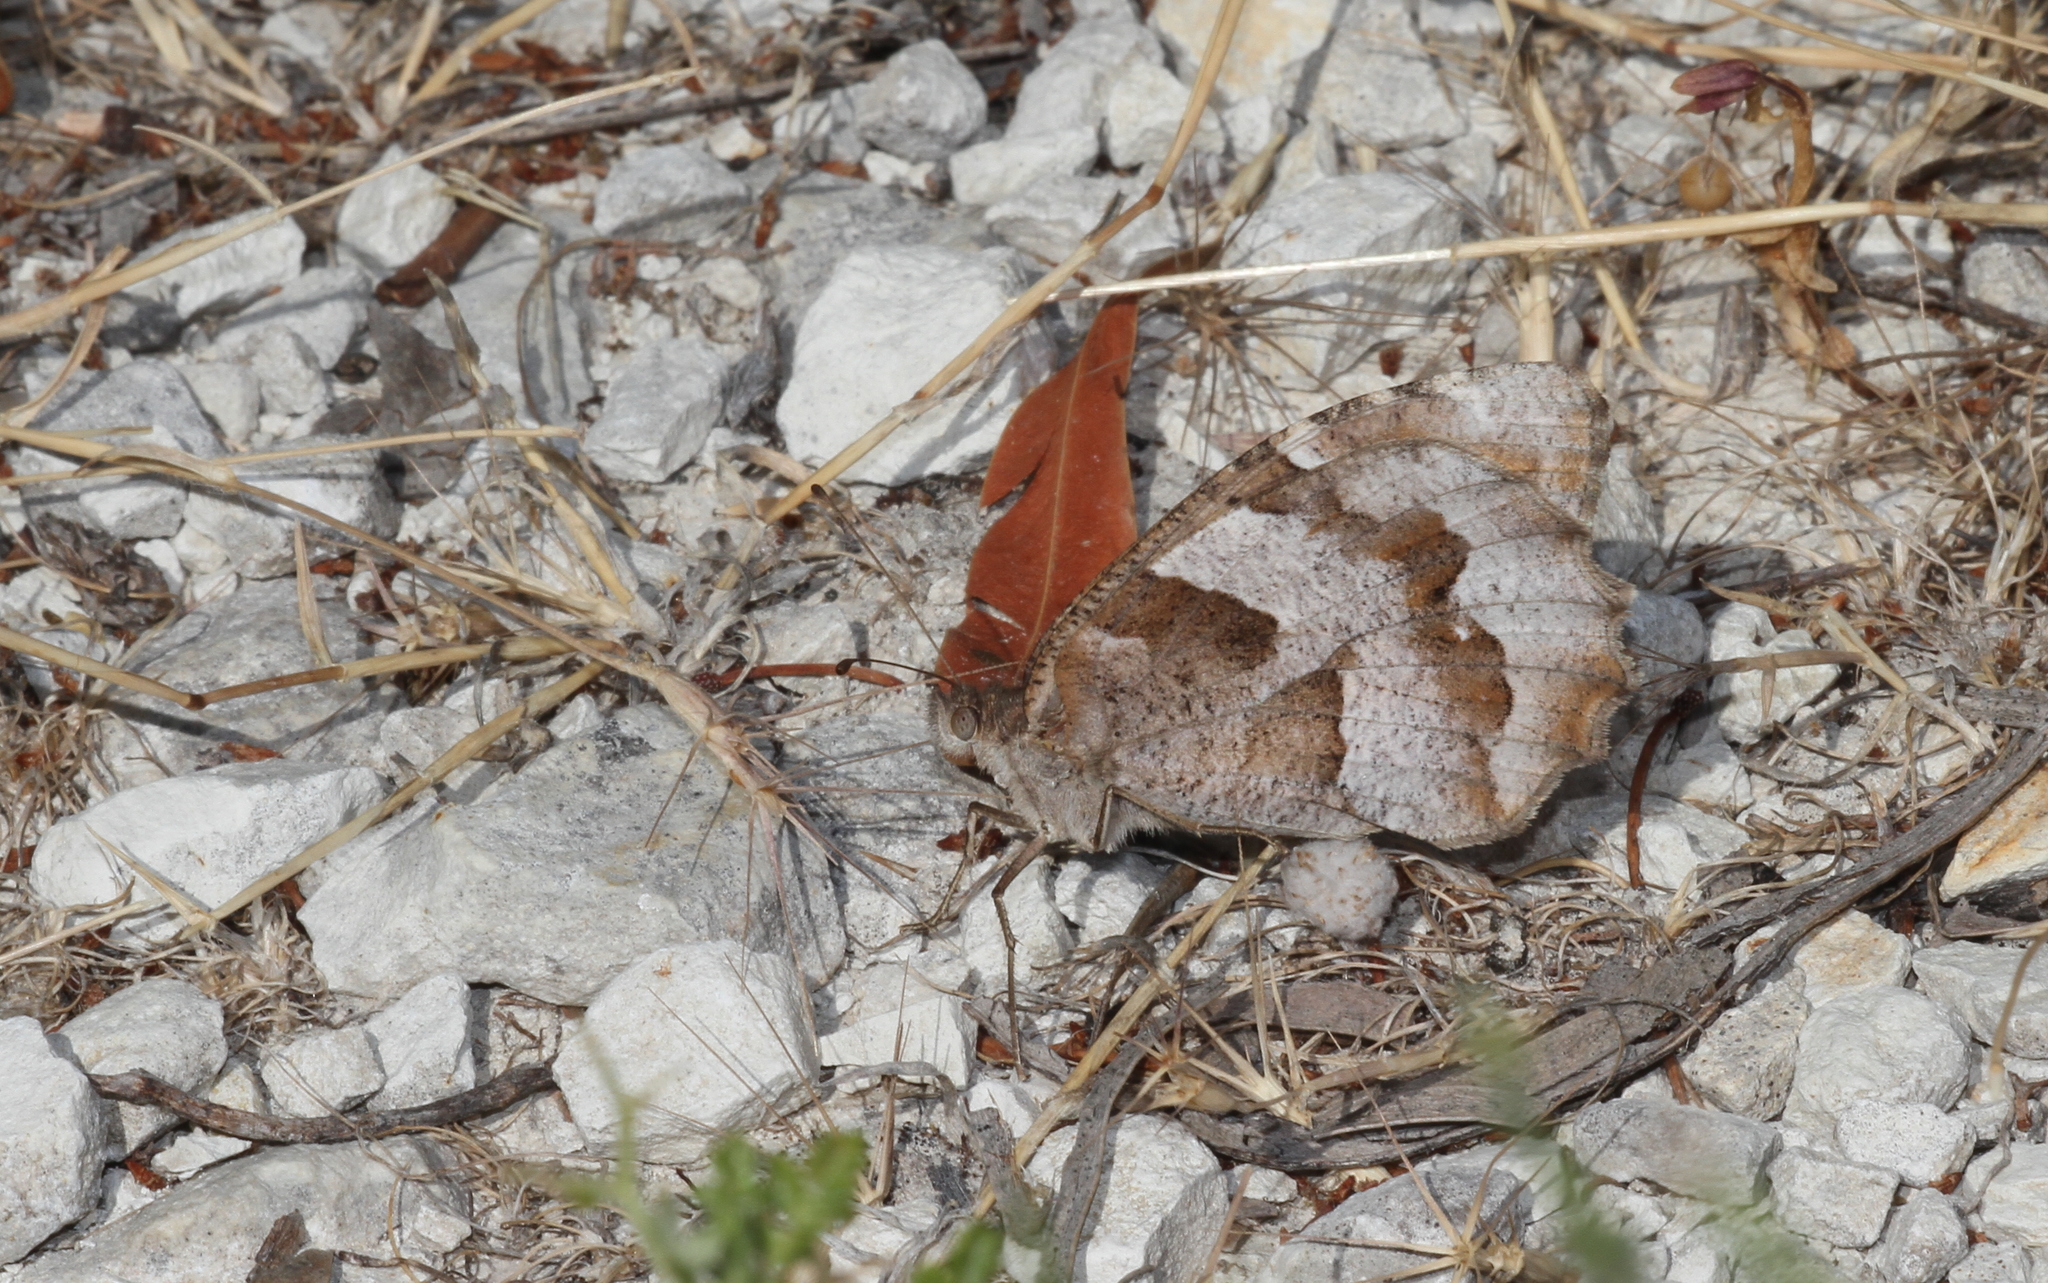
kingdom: Animalia
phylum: Arthropoda
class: Insecta
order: Lepidoptera
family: Nymphalidae
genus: Satyrus
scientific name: Satyrus briseis
